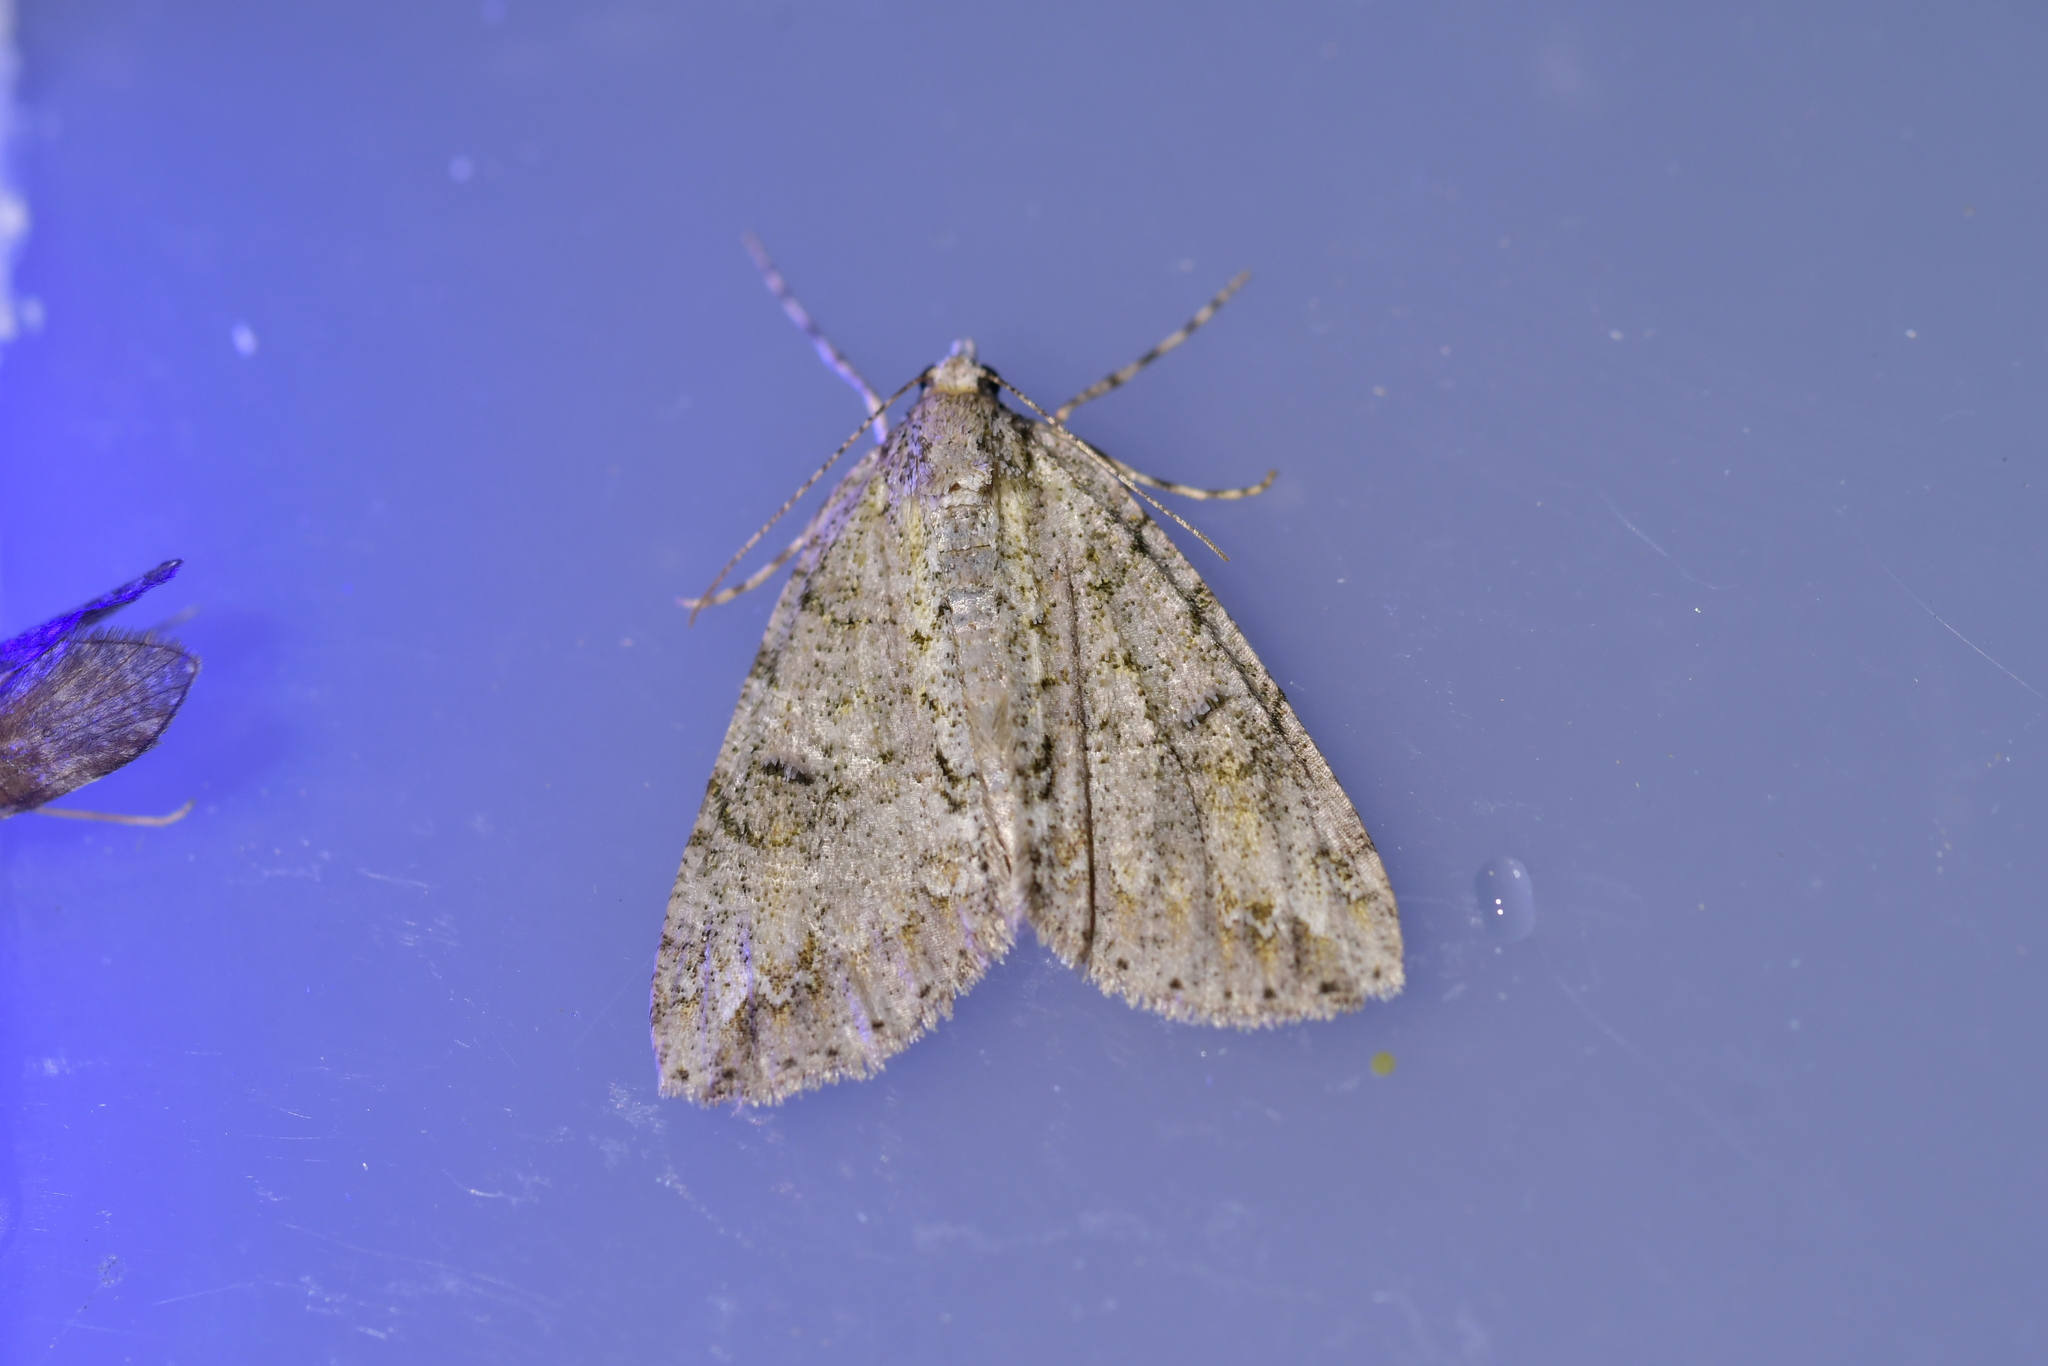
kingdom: Animalia
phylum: Arthropoda
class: Insecta
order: Lepidoptera
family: Geometridae
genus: Pseudocoremia
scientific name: Pseudocoremia suavis
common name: Common forest looper
